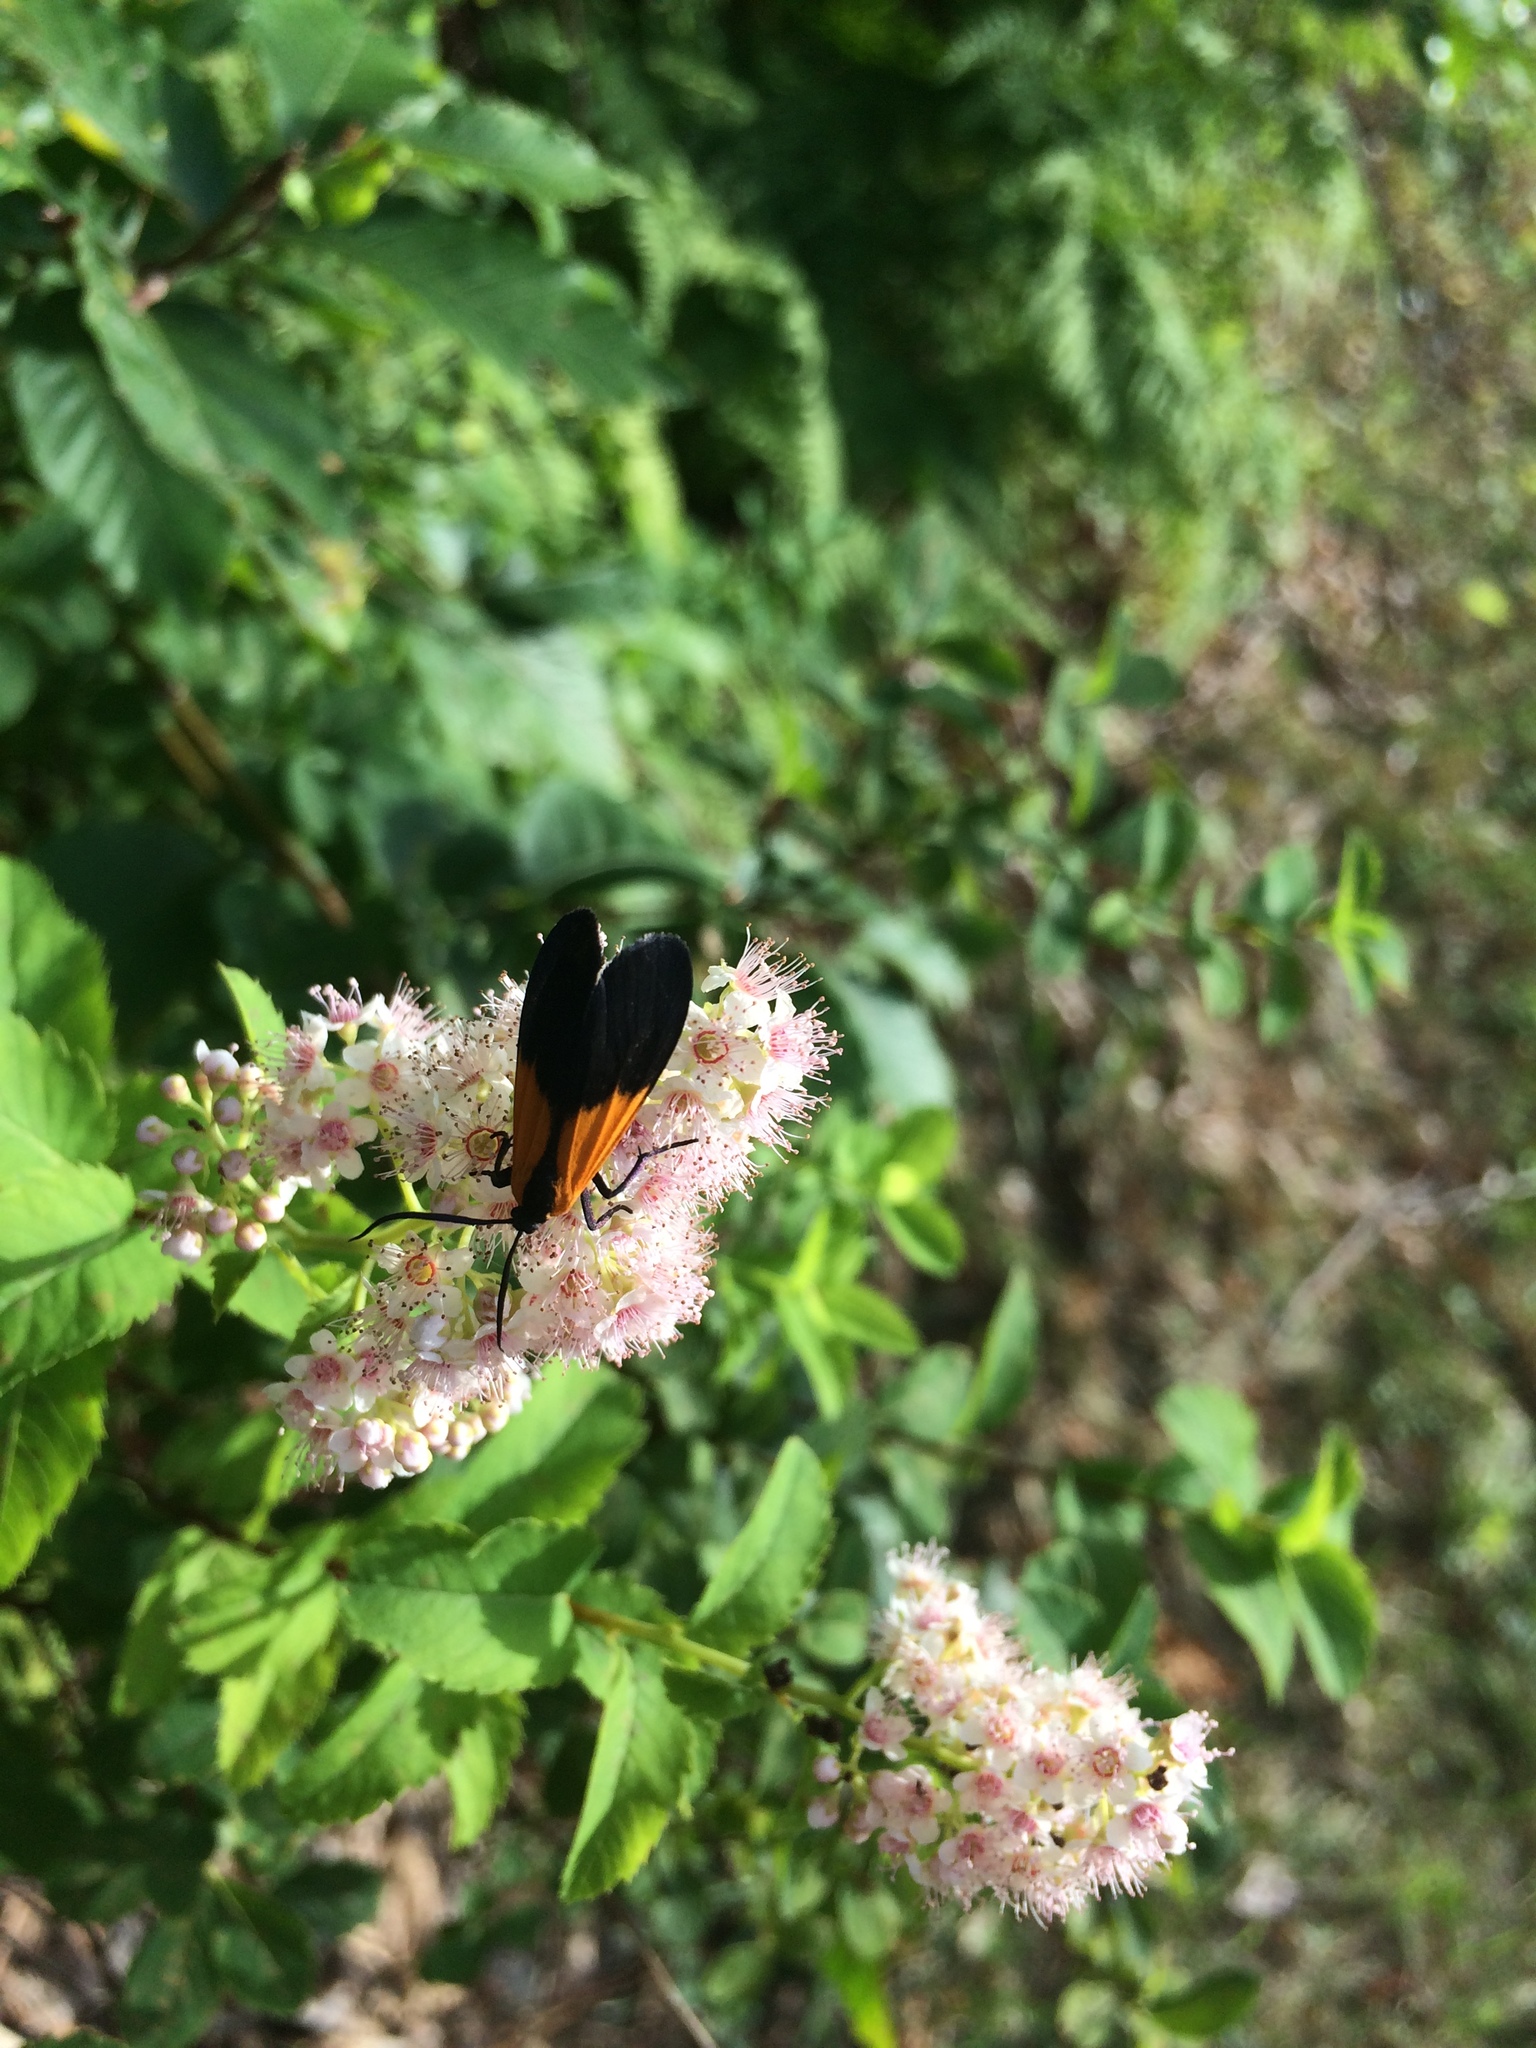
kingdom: Animalia
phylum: Arthropoda
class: Insecta
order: Lepidoptera
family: Erebidae
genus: Lycomorpha
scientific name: Lycomorpha pholus
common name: Black-and-yellow lichen moth
